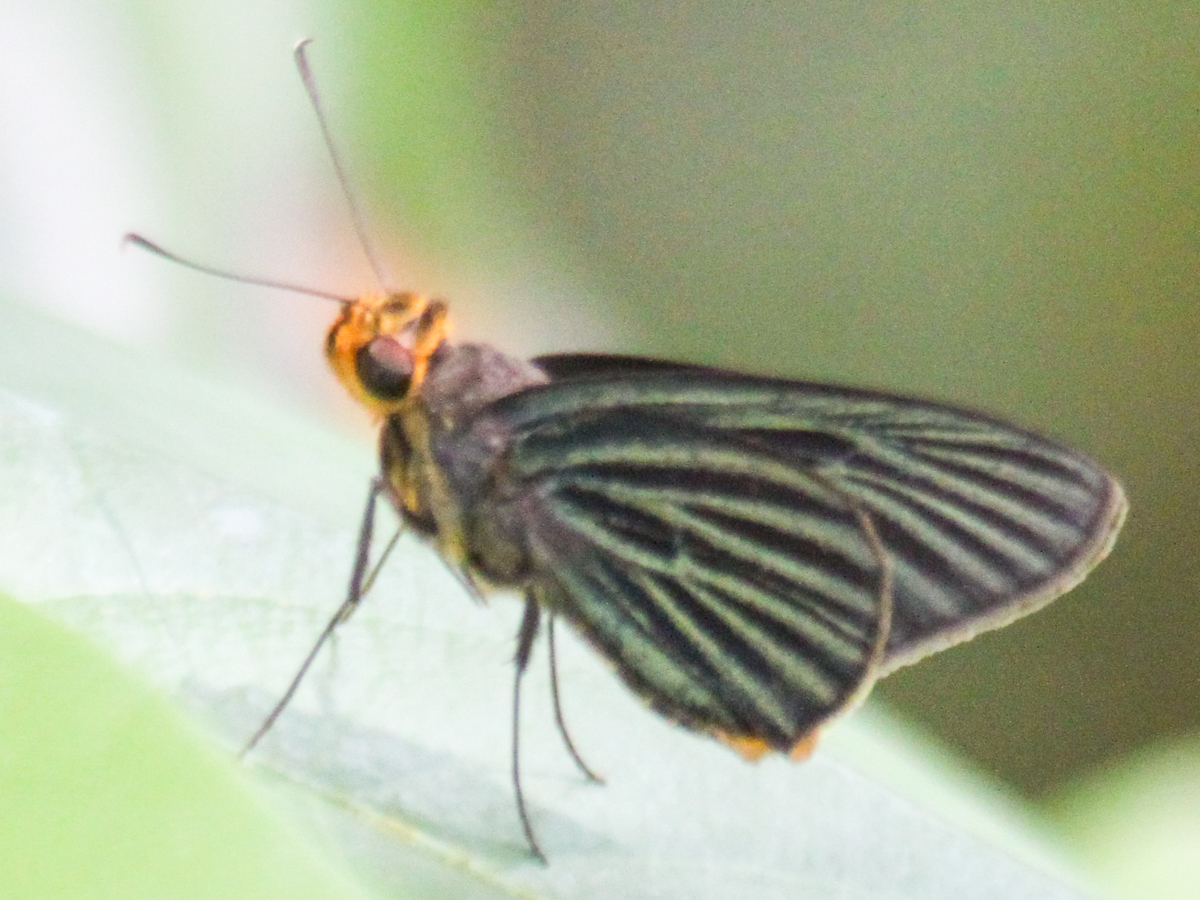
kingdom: Animalia
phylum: Arthropoda
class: Insecta
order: Lepidoptera
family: Hesperiidae
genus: Pirdana
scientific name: Pirdana hyela
